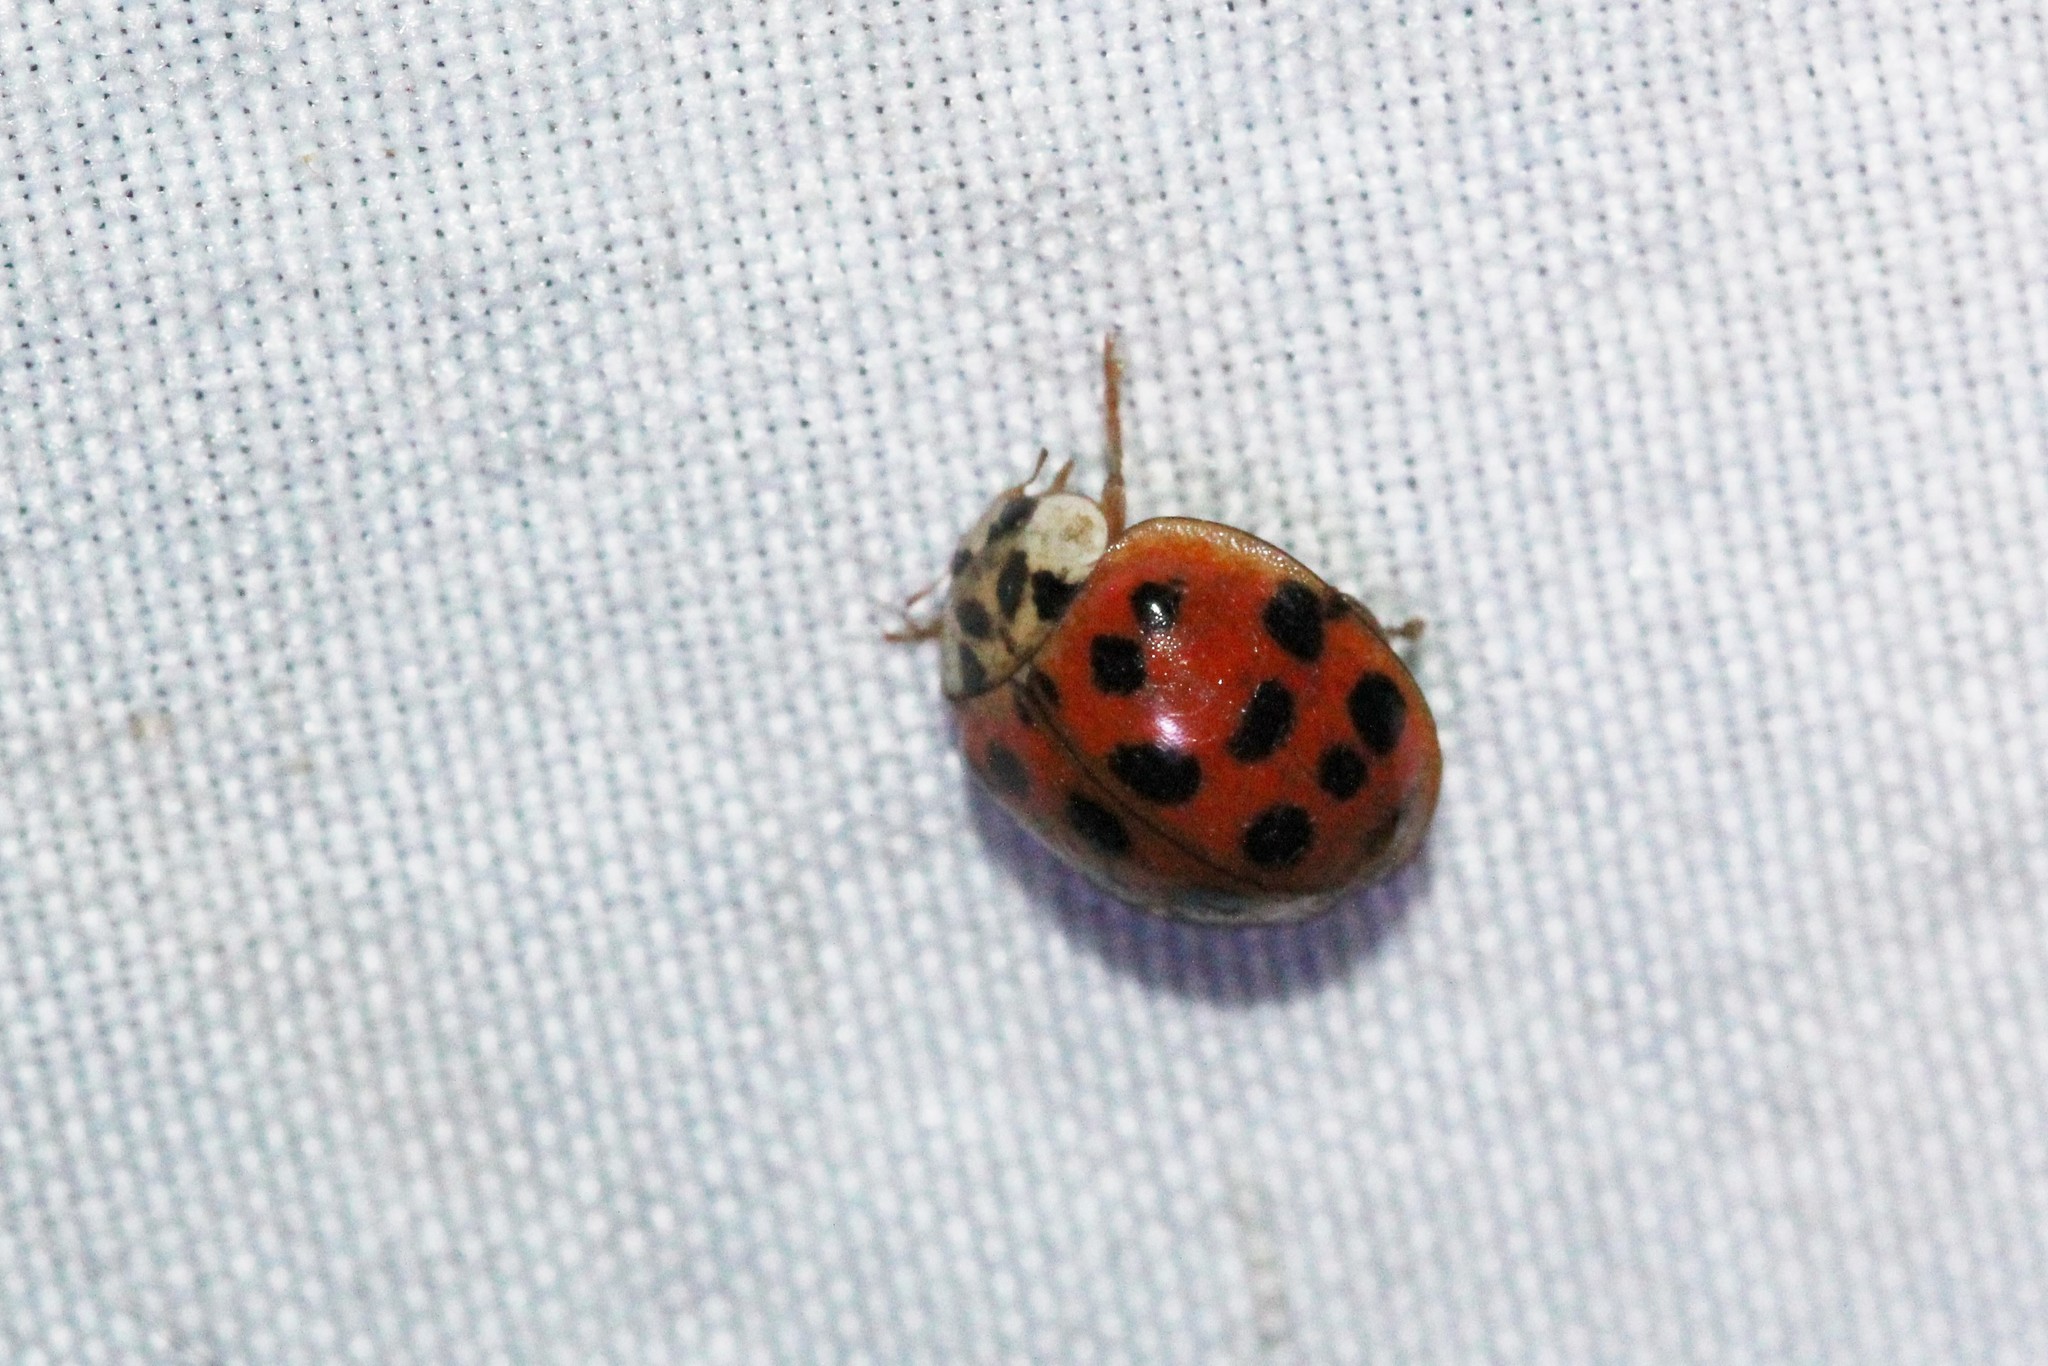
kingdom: Animalia
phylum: Arthropoda
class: Insecta
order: Coleoptera
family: Coccinellidae
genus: Harmonia
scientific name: Harmonia axyridis
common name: Harlequin ladybird
